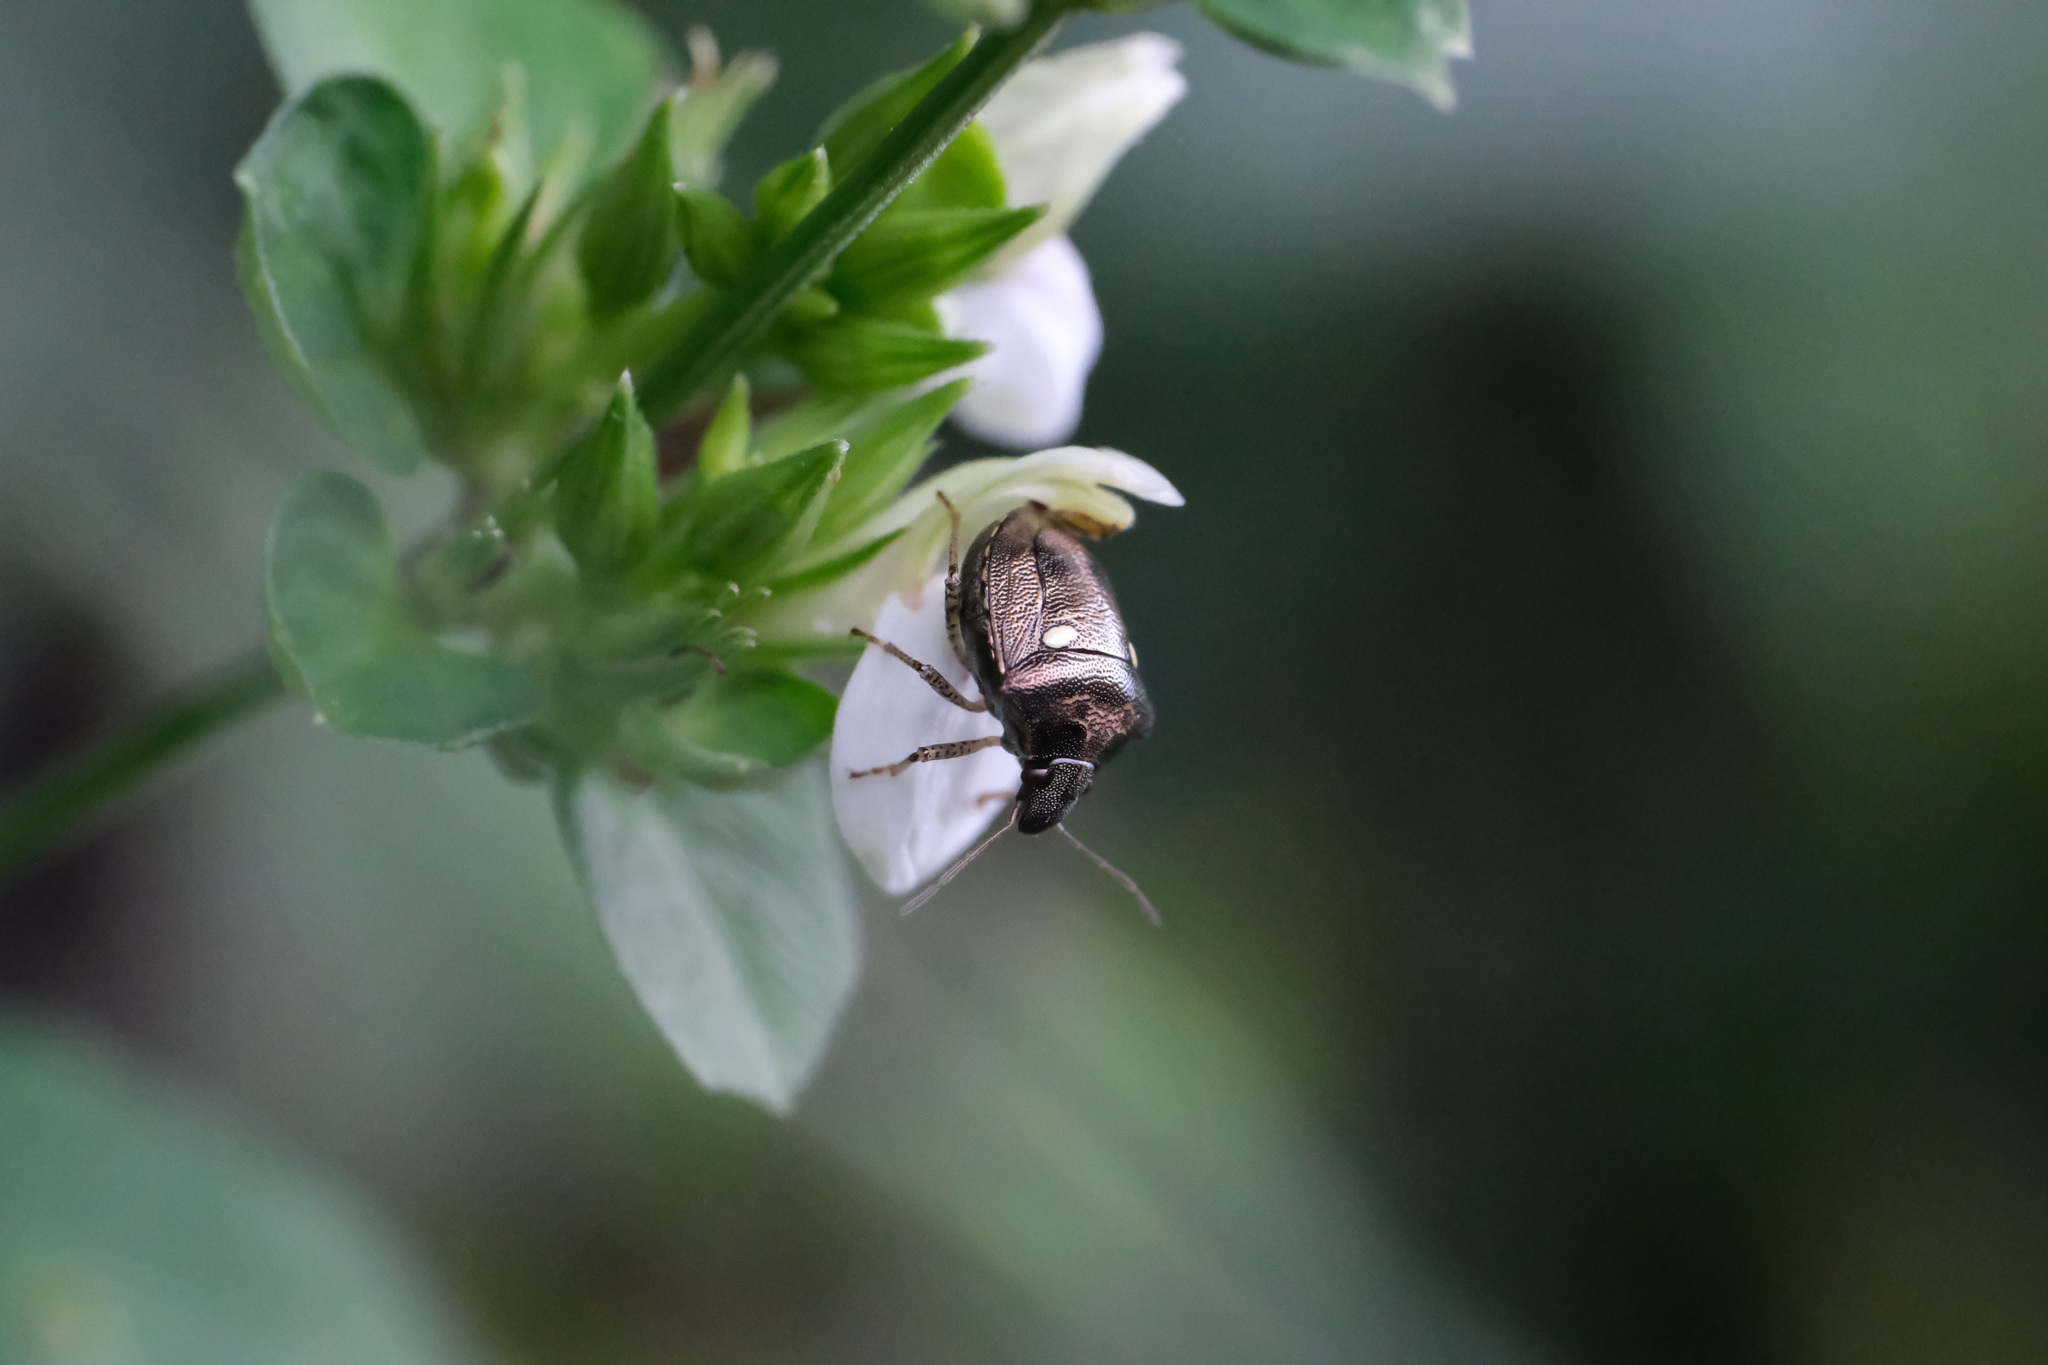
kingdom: Animalia
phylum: Arthropoda
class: Insecta
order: Hemiptera
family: Pentatomidae
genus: Eysarcoris
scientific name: Eysarcoris guttigerus
